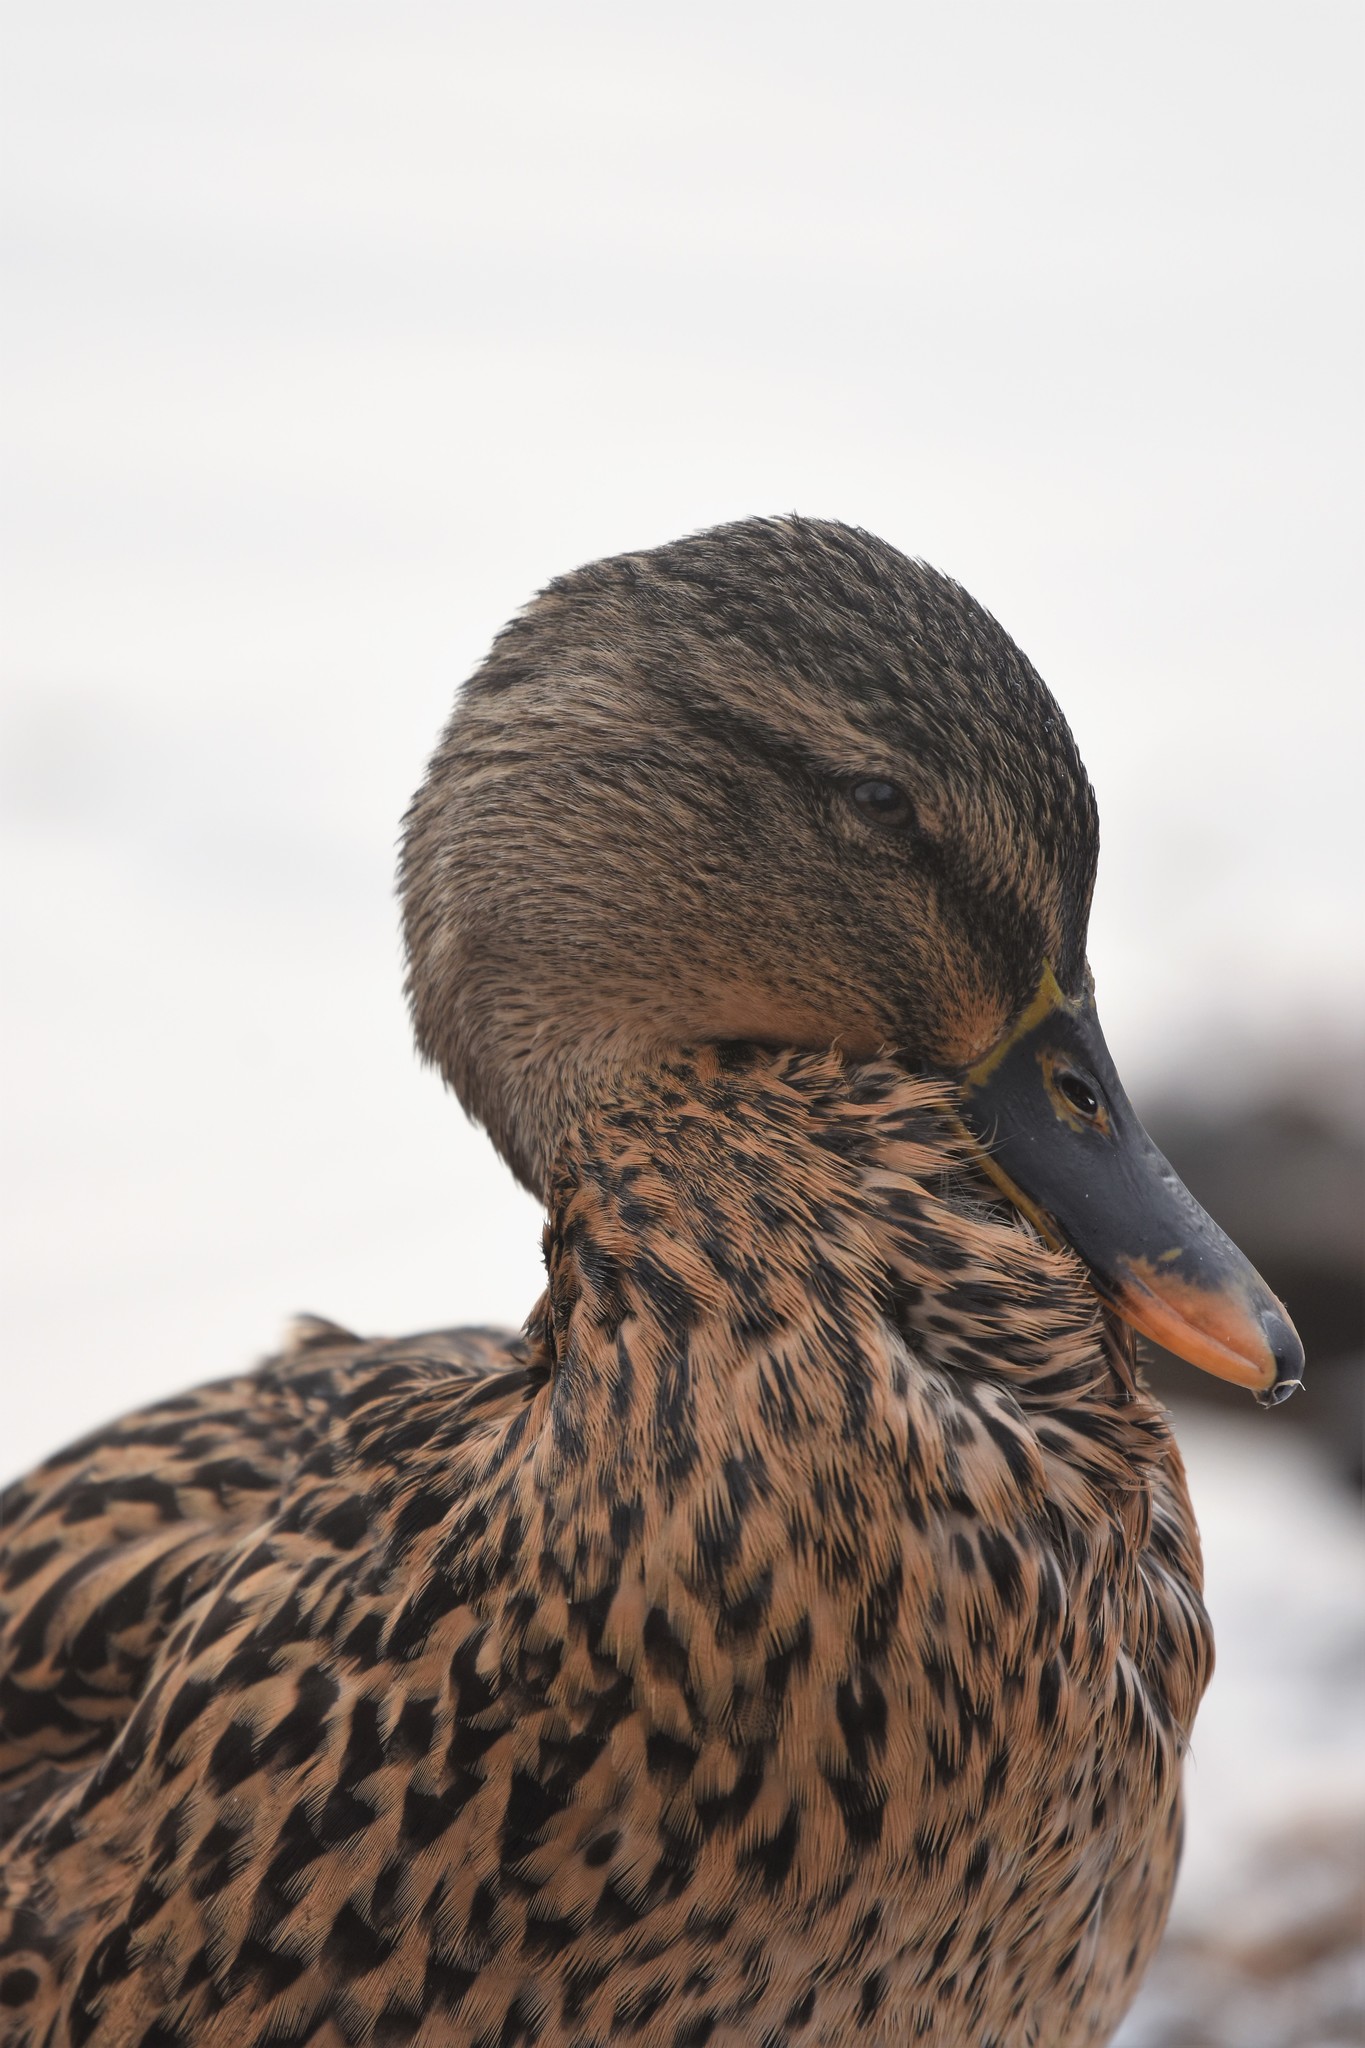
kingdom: Animalia
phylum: Chordata
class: Aves
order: Anseriformes
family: Anatidae
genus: Anas
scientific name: Anas platyrhynchos
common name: Mallard
